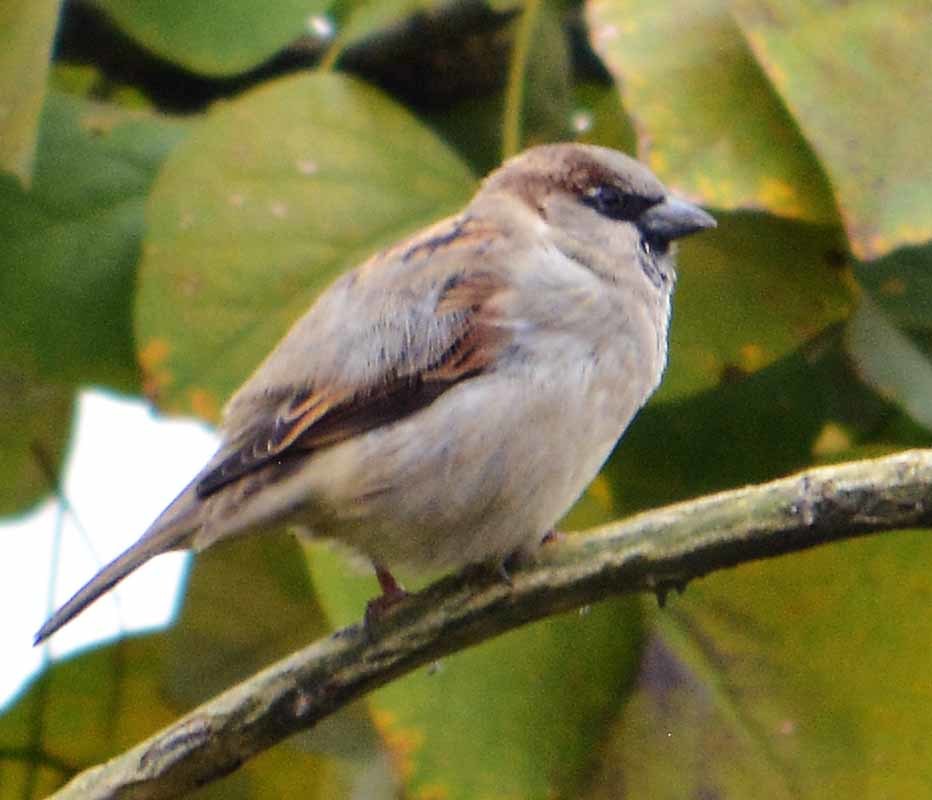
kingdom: Animalia
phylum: Chordata
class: Aves
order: Passeriformes
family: Passeridae
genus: Passer
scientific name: Passer domesticus
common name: House sparrow
